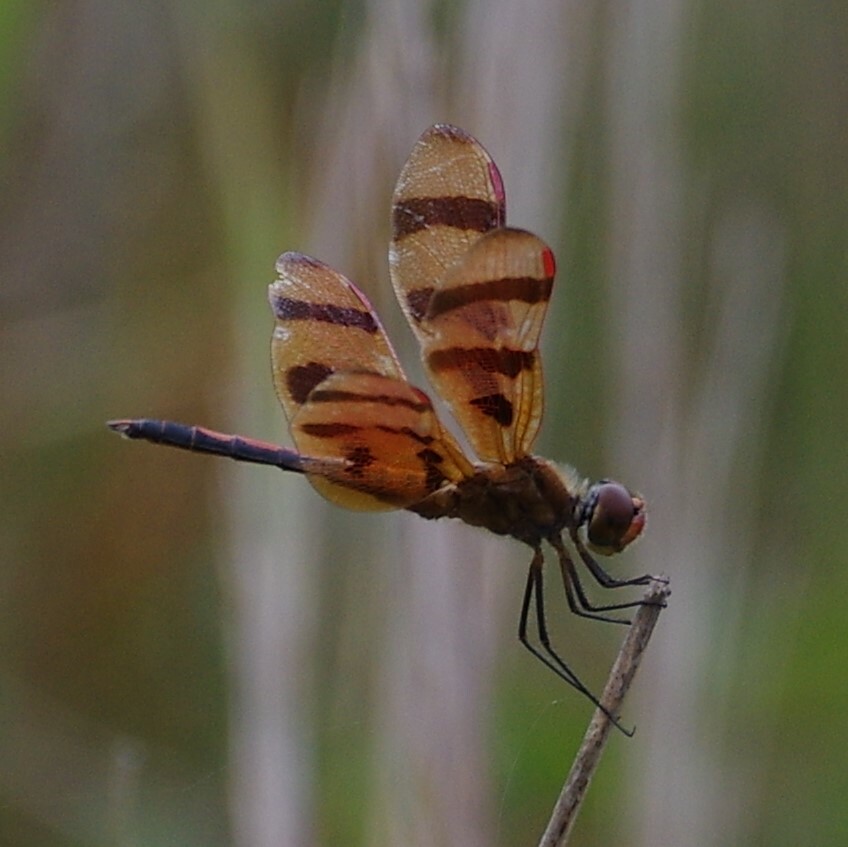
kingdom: Animalia
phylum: Arthropoda
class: Insecta
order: Odonata
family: Libellulidae
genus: Celithemis
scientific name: Celithemis eponina
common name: Halloween pennant
